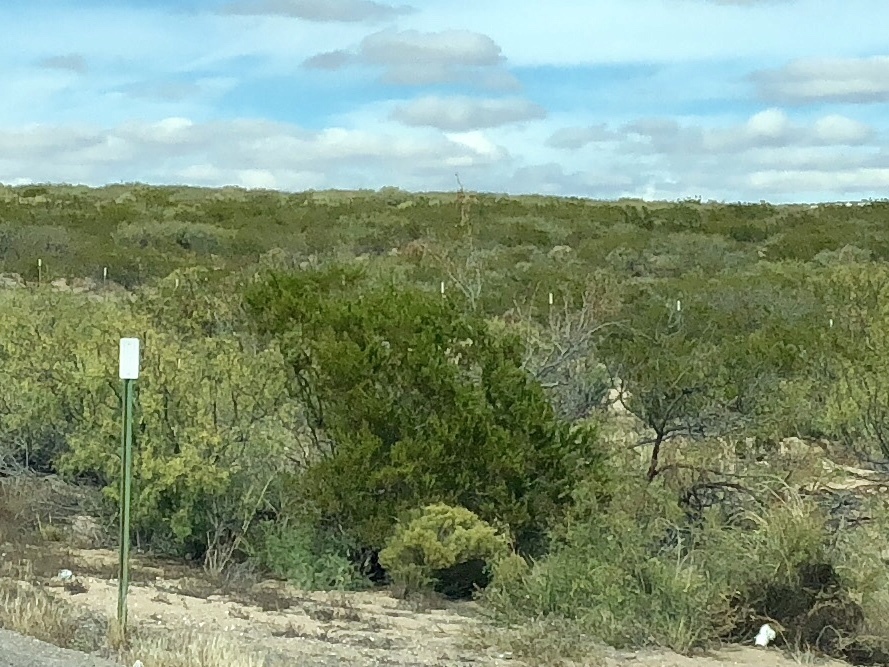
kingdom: Plantae
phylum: Tracheophyta
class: Magnoliopsida
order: Zygophyllales
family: Zygophyllaceae
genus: Larrea
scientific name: Larrea tridentata
